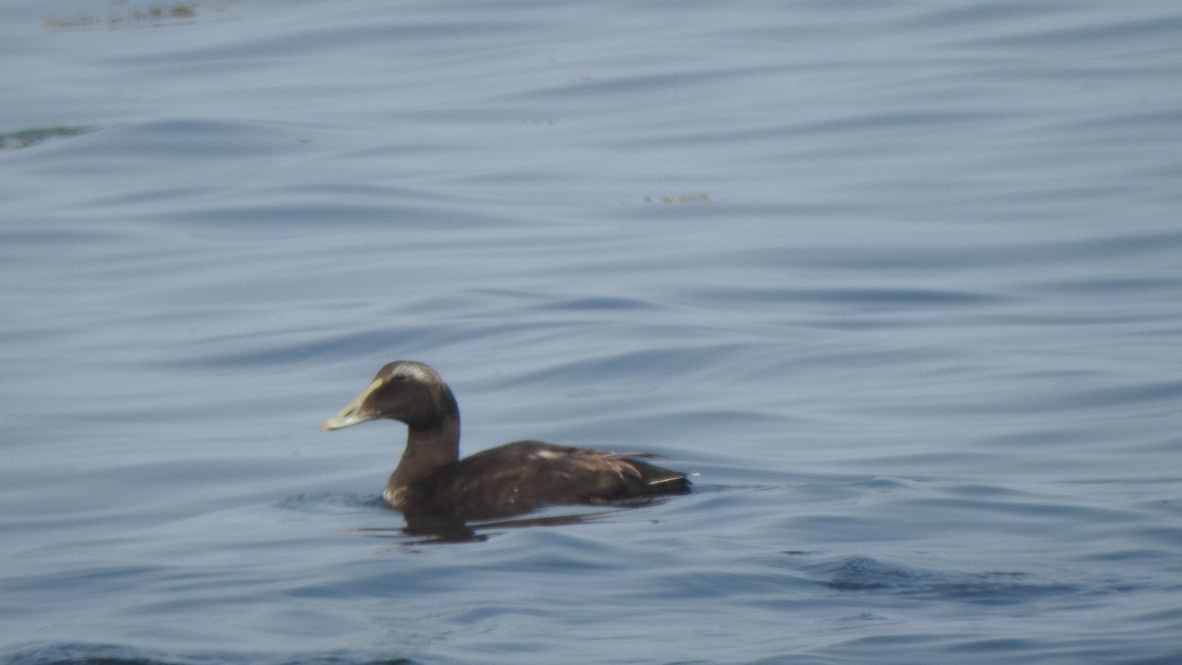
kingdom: Animalia
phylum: Chordata
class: Aves
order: Anseriformes
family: Anatidae
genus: Somateria
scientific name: Somateria mollissima
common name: Common eider
